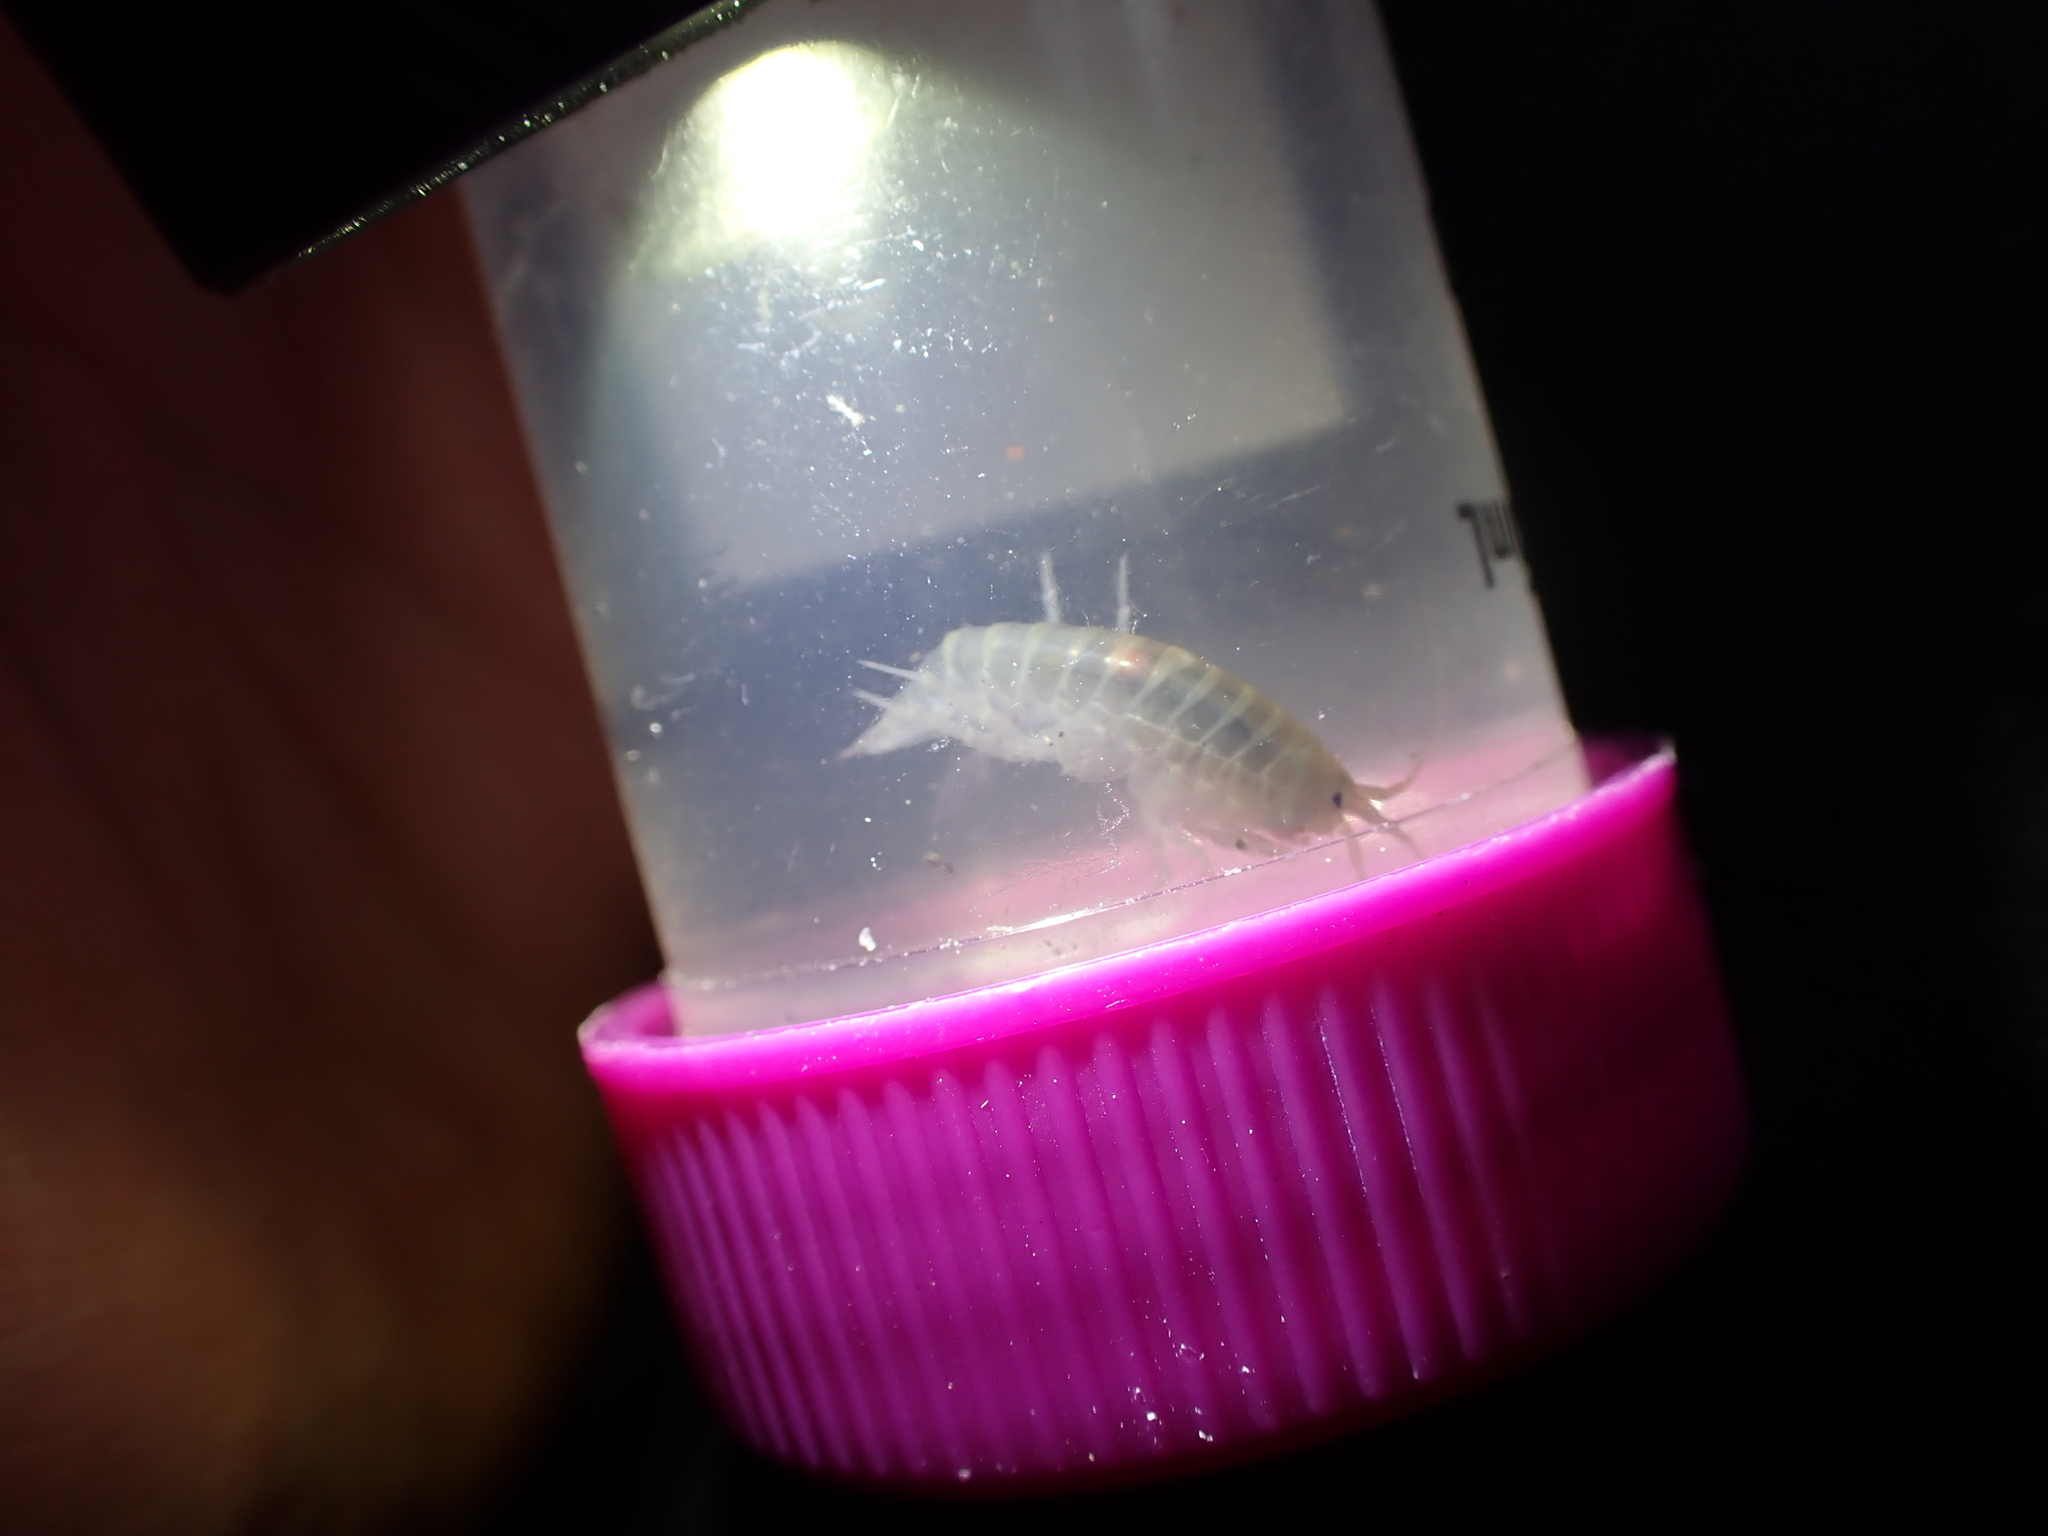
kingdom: Animalia
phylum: Arthropoda
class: Malacostraca
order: Amphipoda
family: Gammaridae
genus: Gammarus
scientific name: Gammarus lacustris
